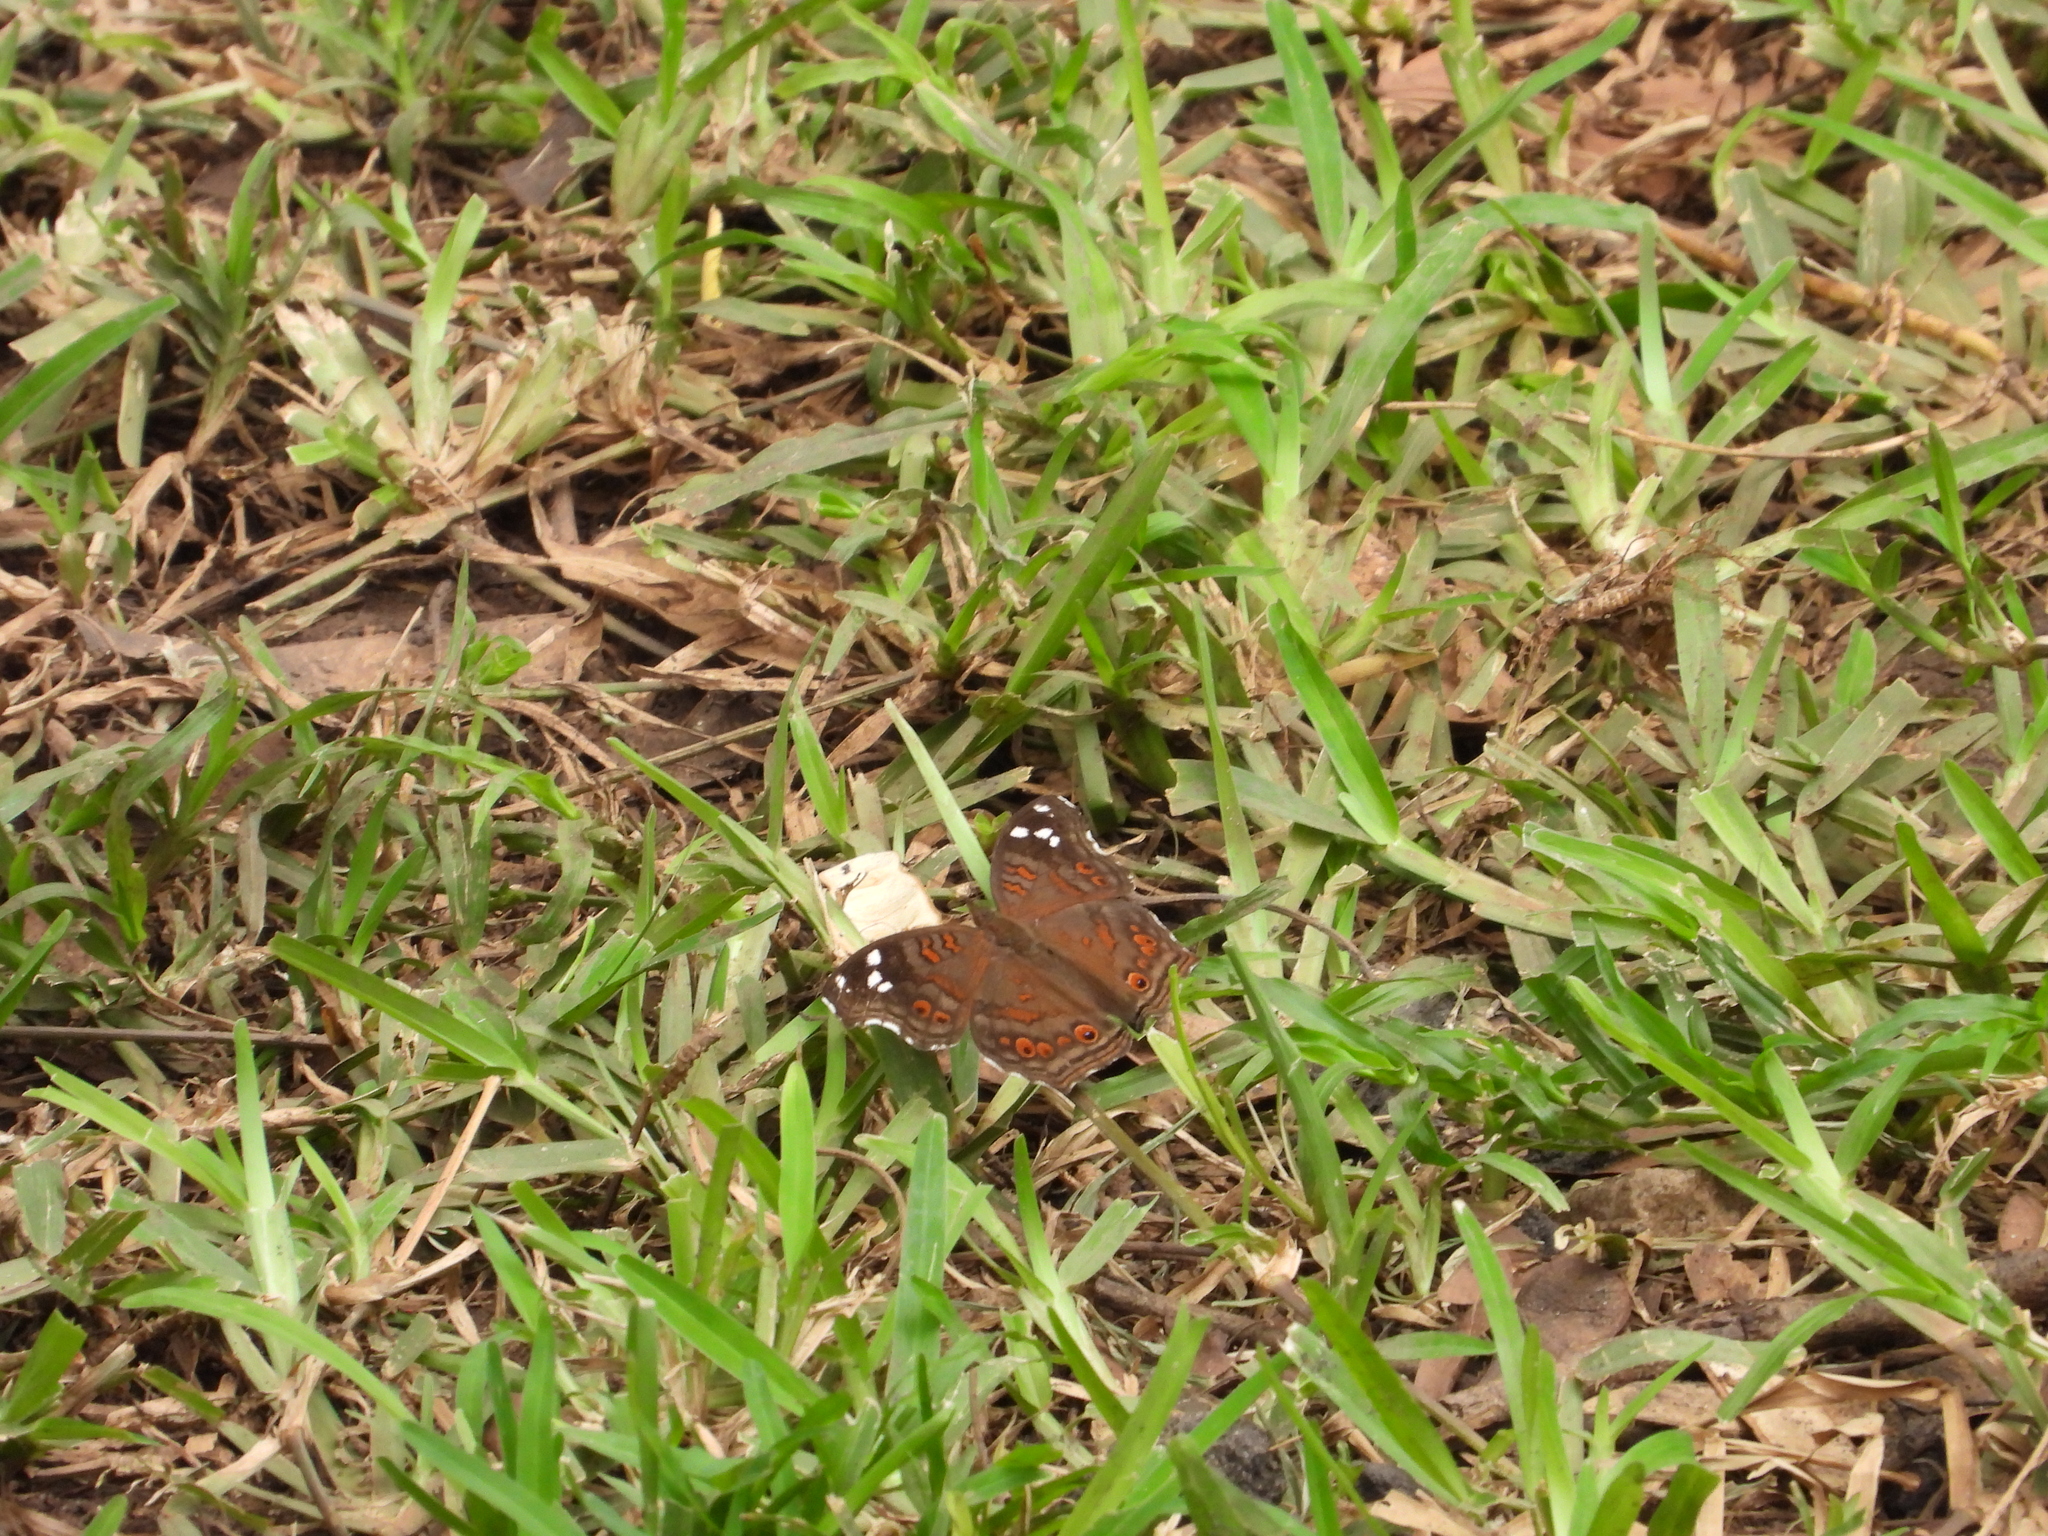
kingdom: Animalia
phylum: Arthropoda
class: Insecta
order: Lepidoptera
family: Nymphalidae
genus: Junonia
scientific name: Junonia natalica
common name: Brown pansy
